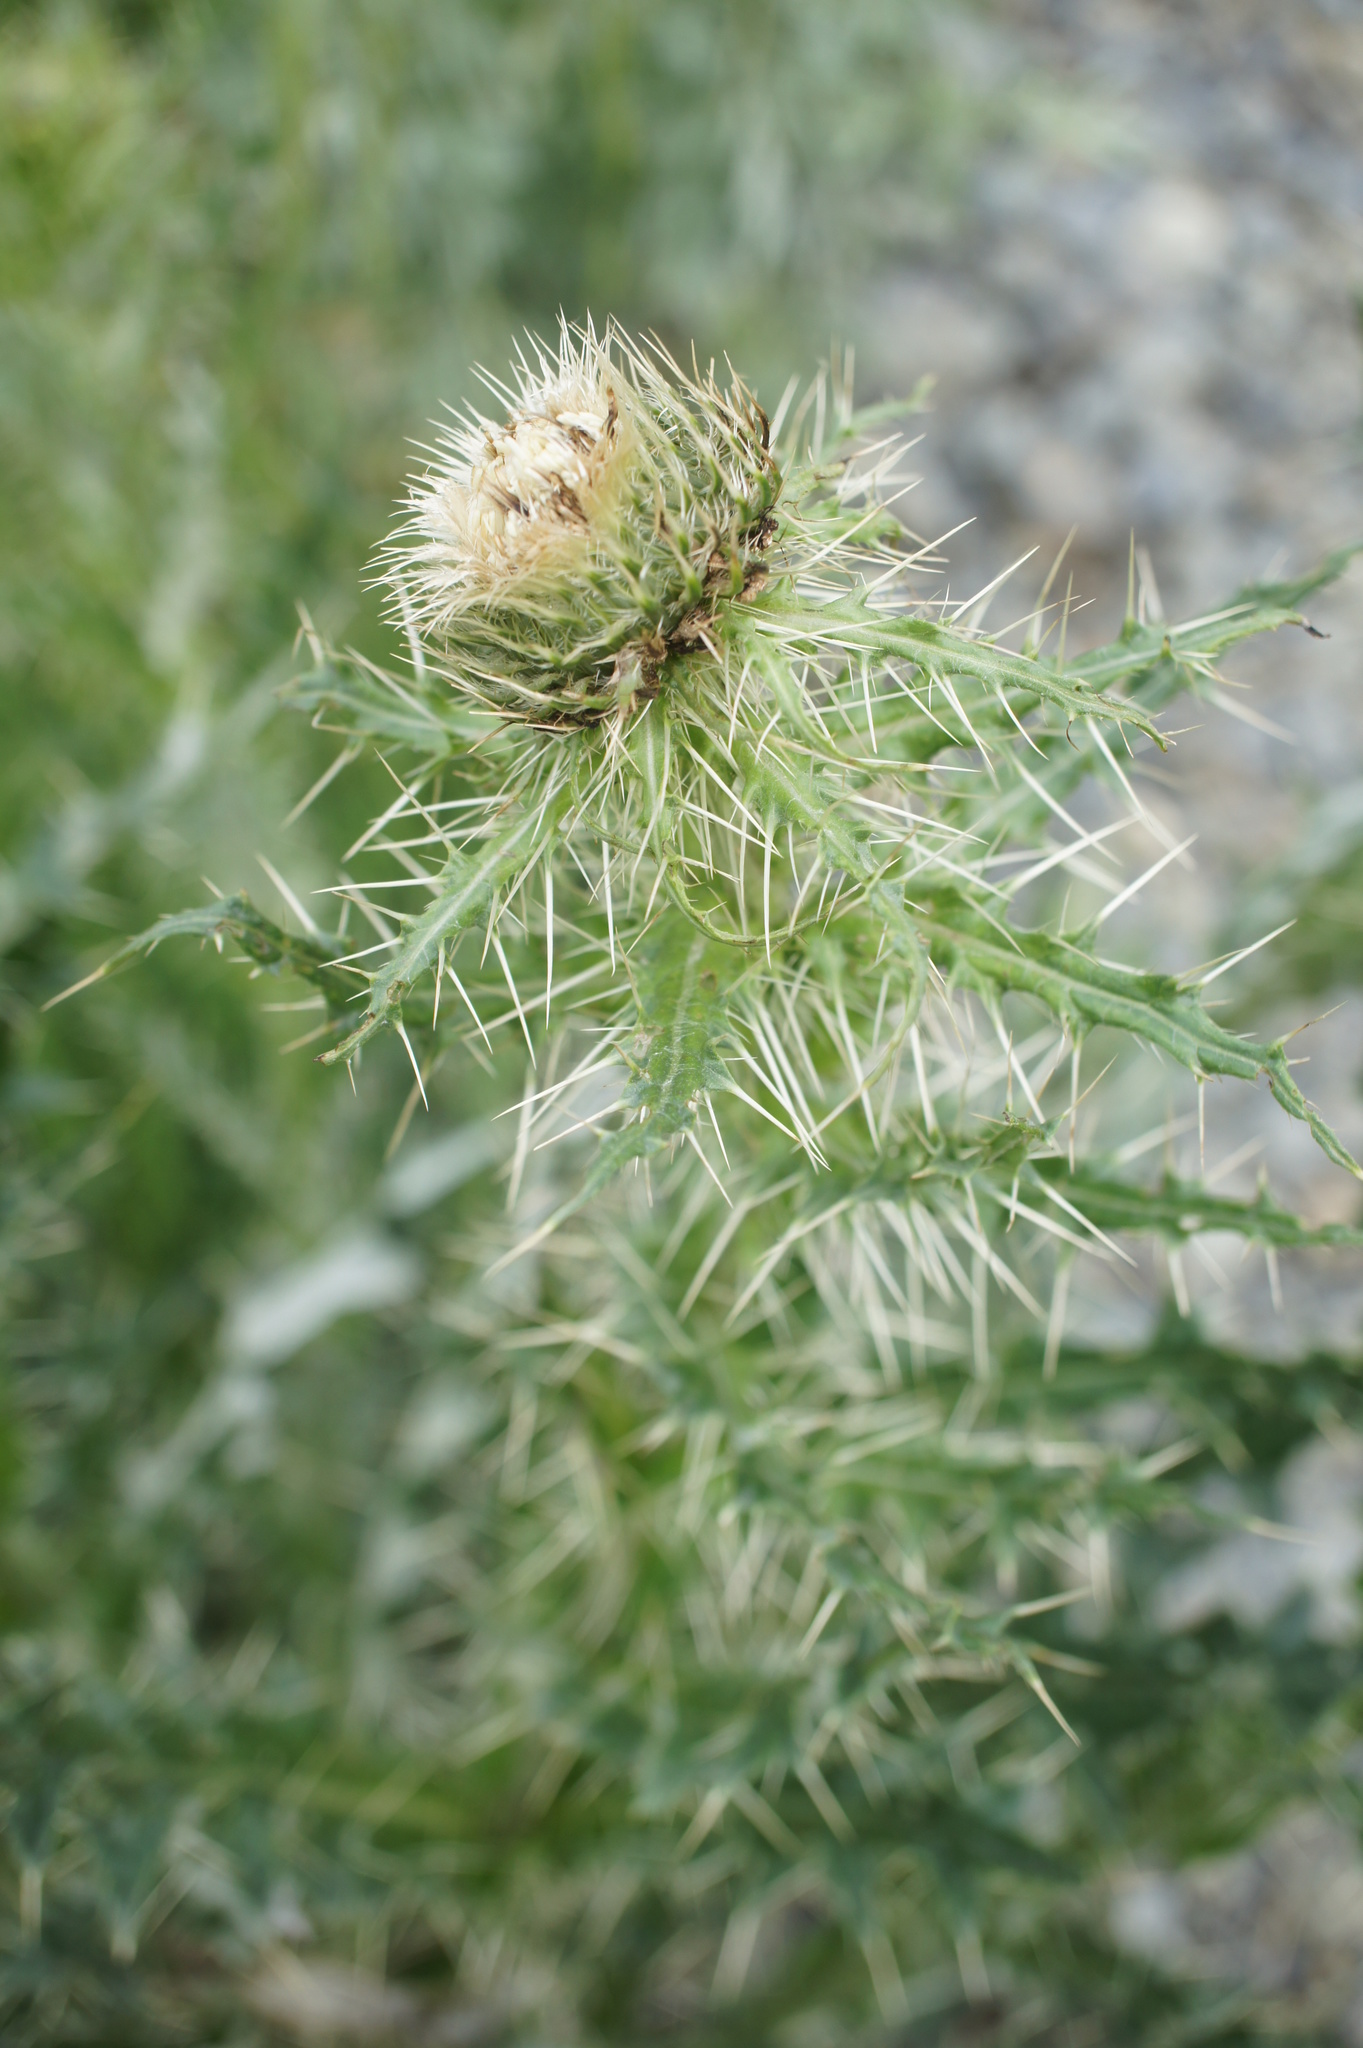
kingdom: Plantae
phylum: Tracheophyta
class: Magnoliopsida
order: Asterales
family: Asteraceae
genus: Cirsium
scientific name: Cirsium echinus
